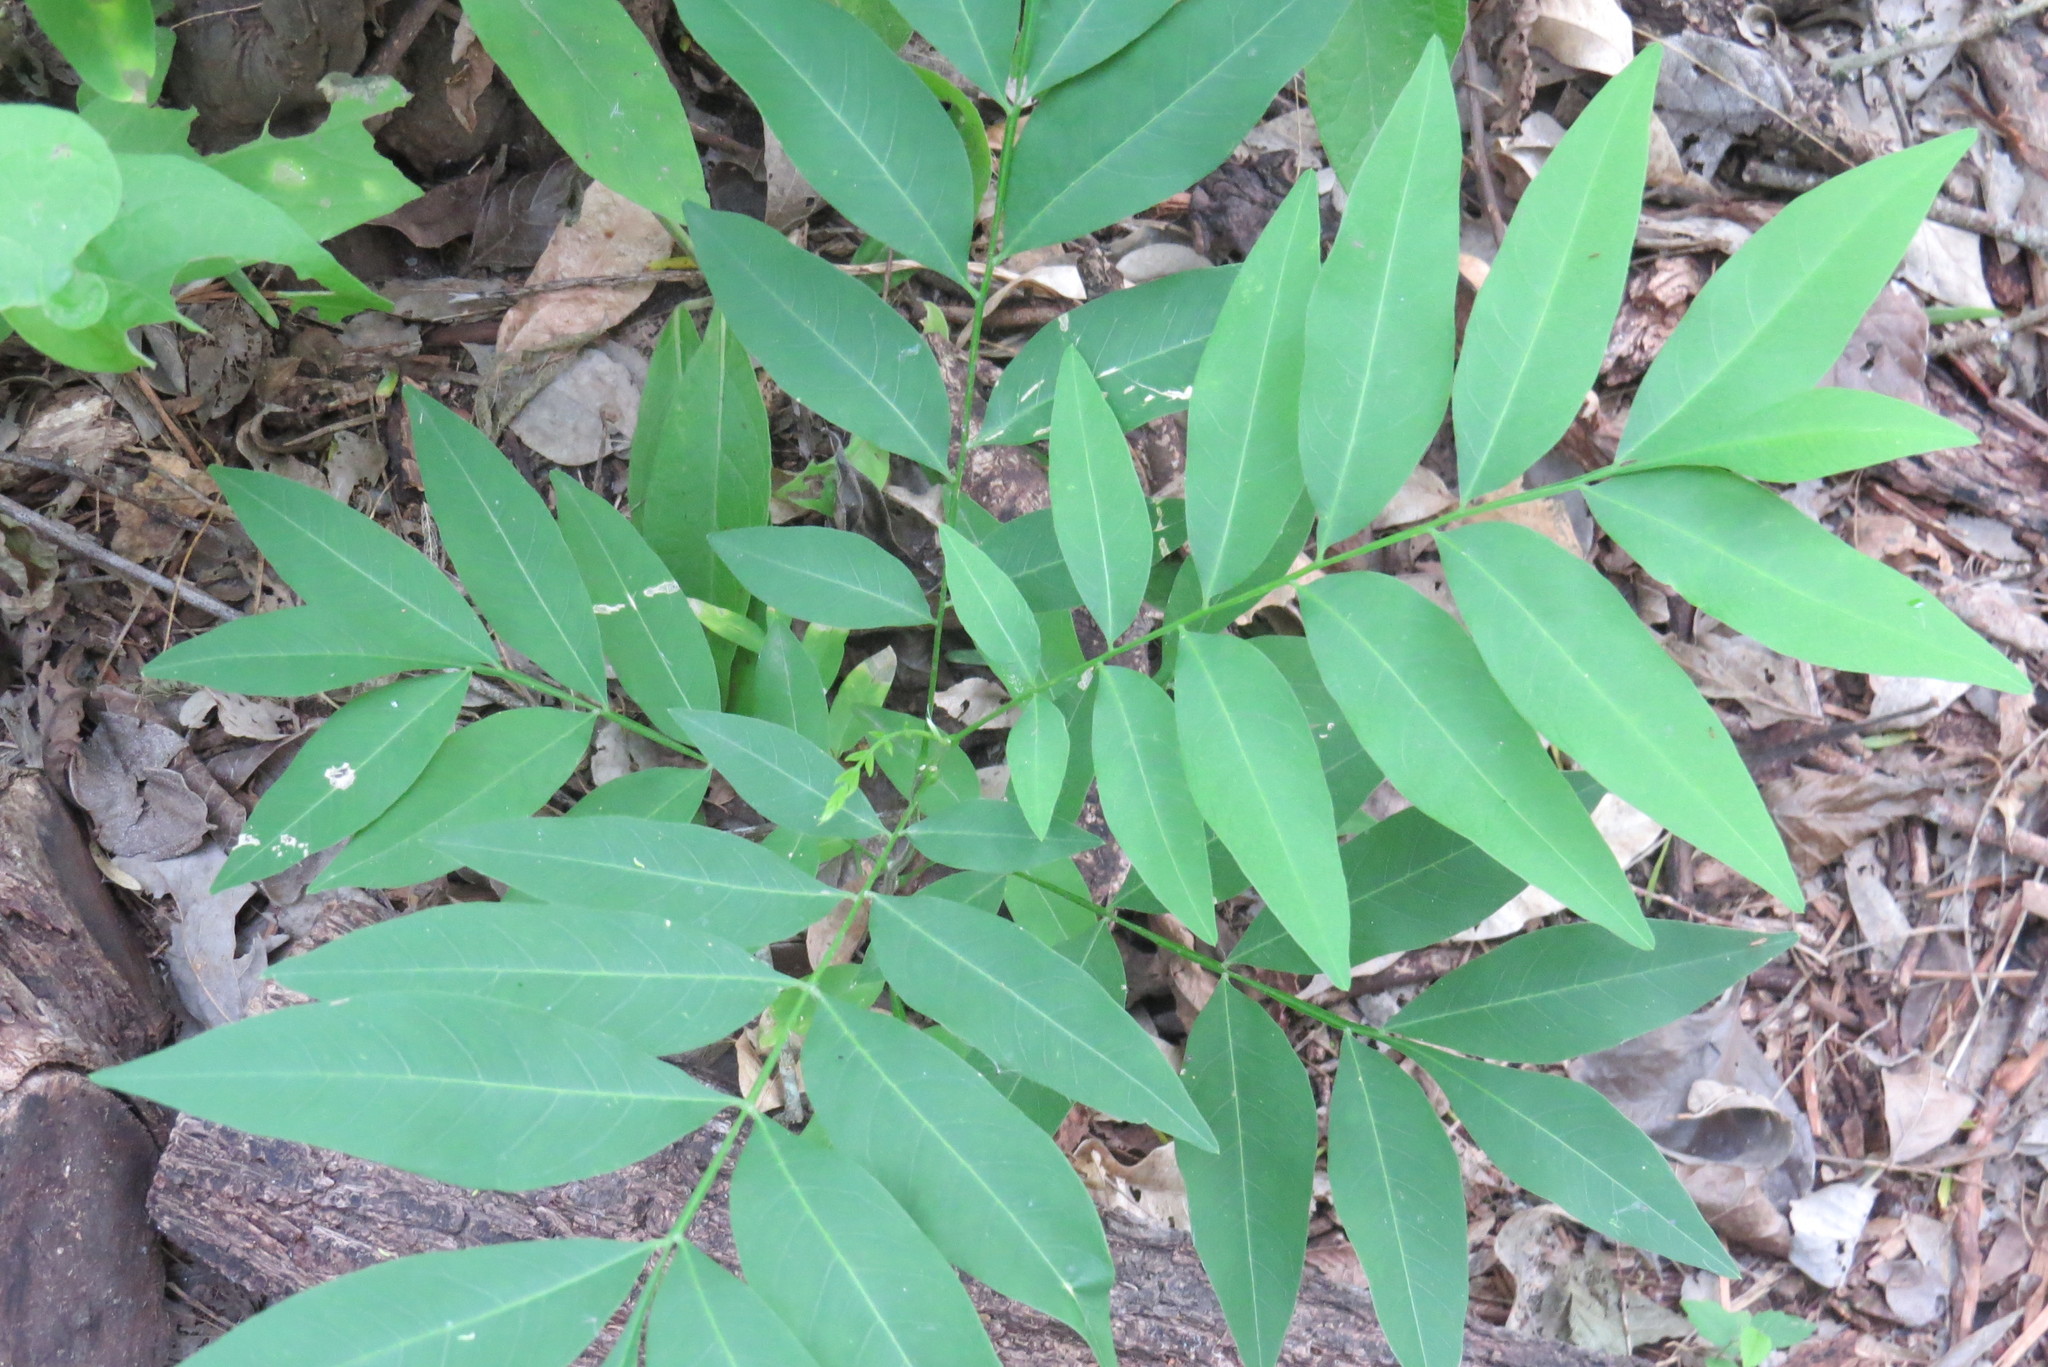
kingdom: Plantae
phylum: Tracheophyta
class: Magnoliopsida
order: Sapindales
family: Sapindaceae
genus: Sapindus
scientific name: Sapindus drummondii
